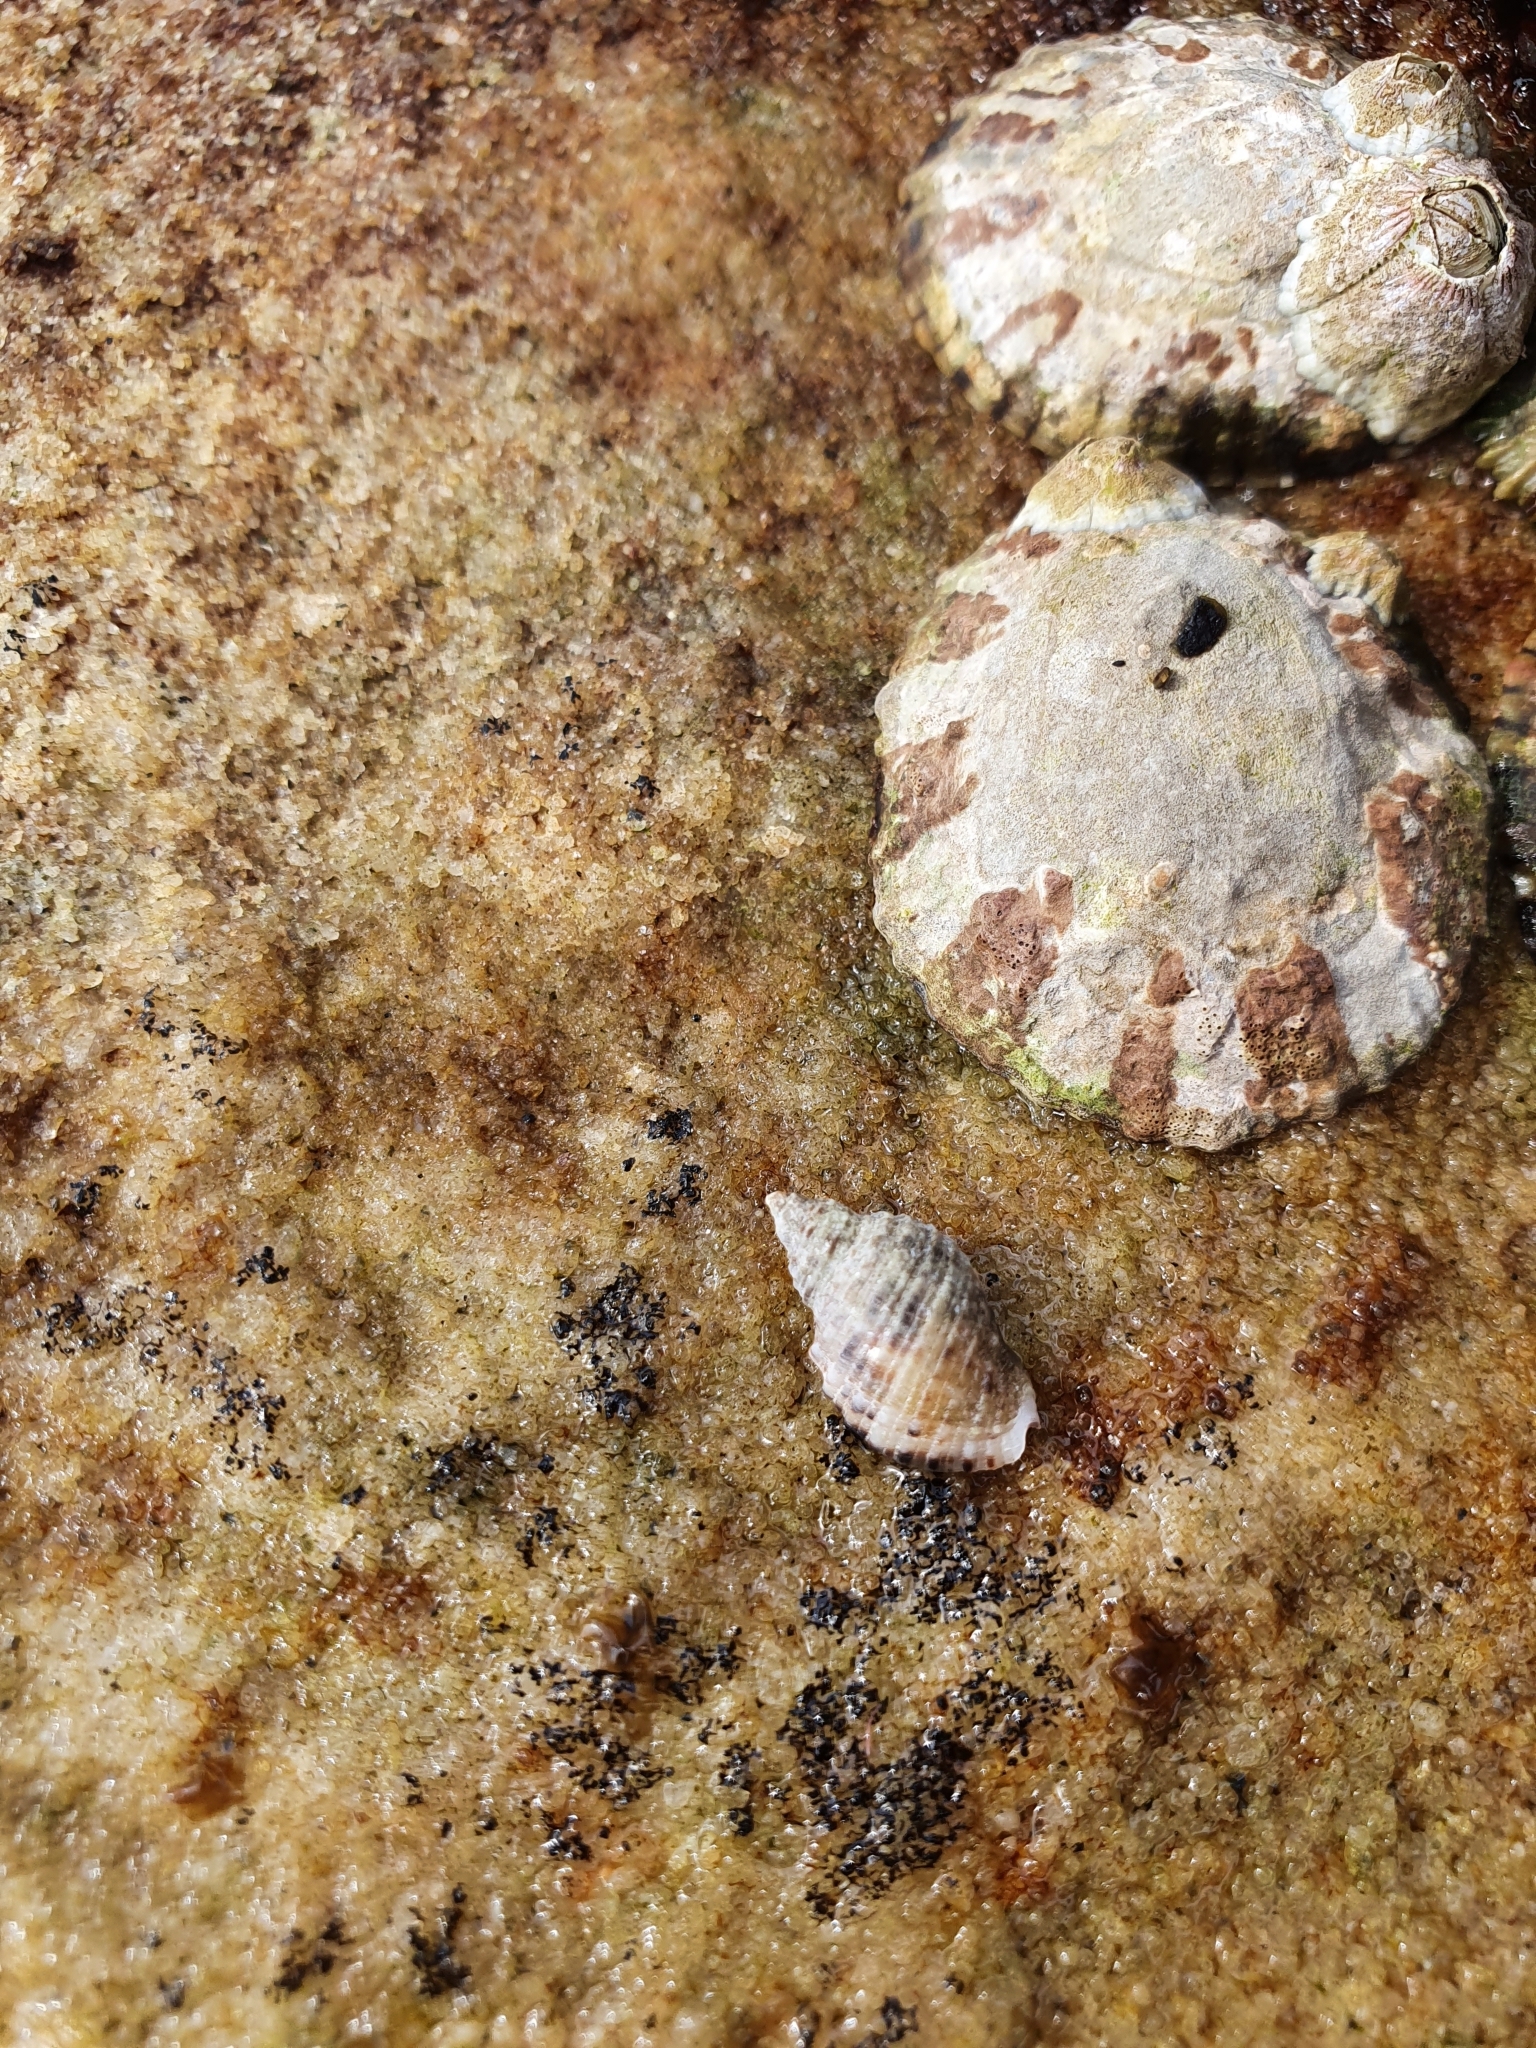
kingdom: Animalia
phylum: Mollusca
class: Gastropoda
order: Neogastropoda
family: Muricidae
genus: Dicathais
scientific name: Dicathais orbita
